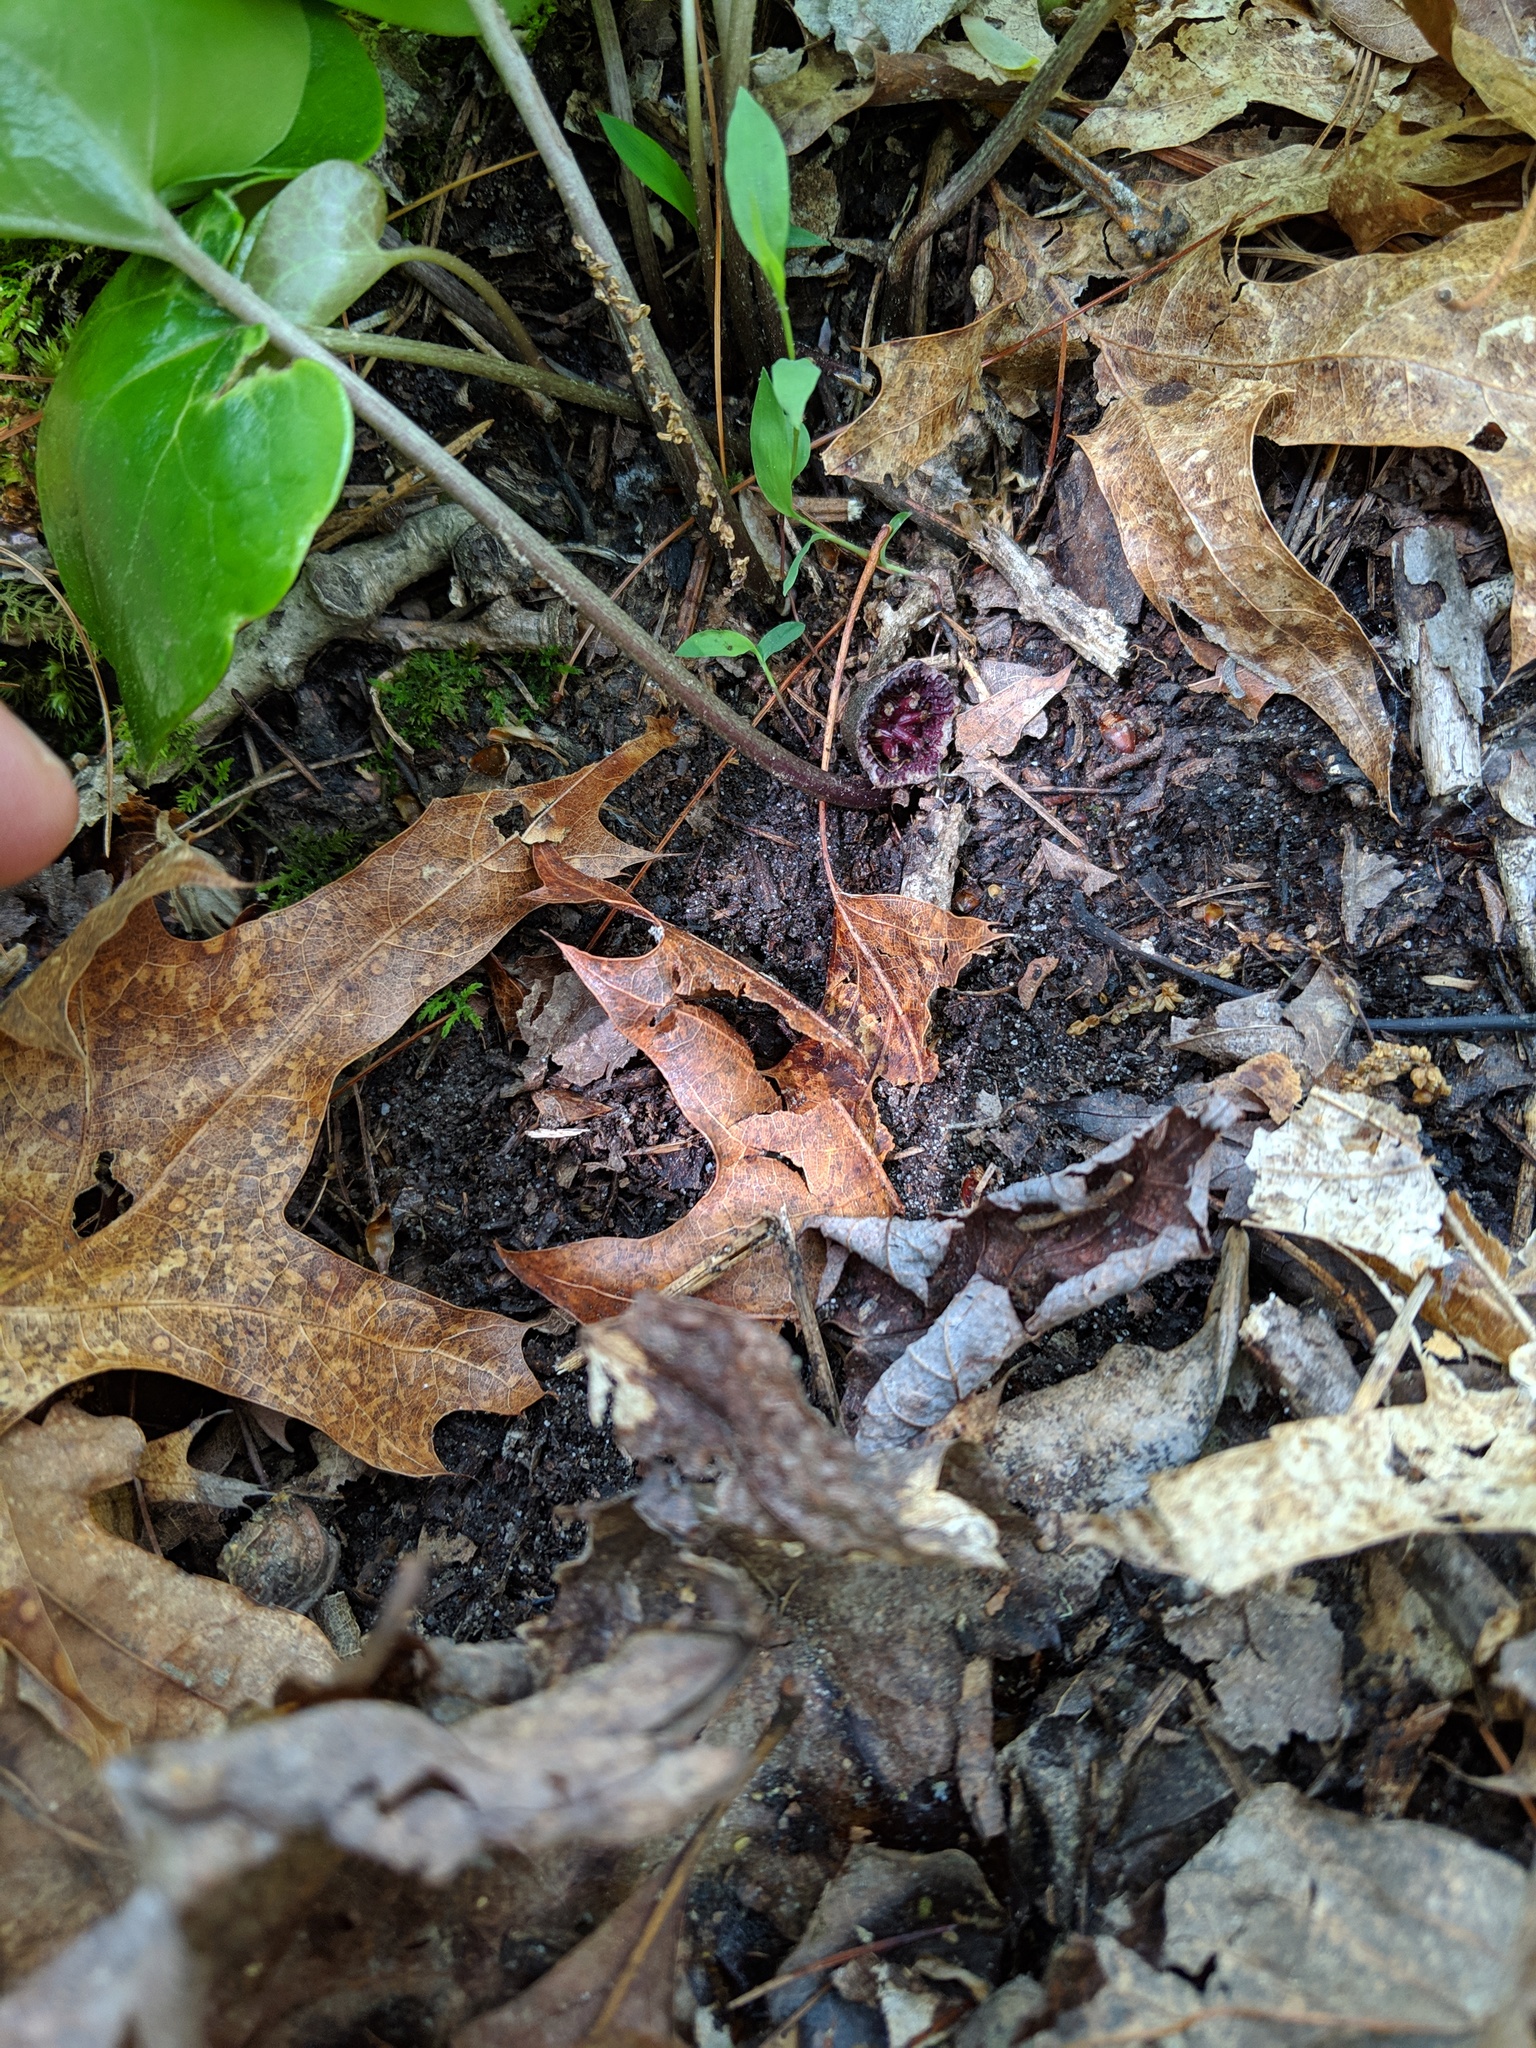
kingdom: Plantae
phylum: Tracheophyta
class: Magnoliopsida
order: Piperales
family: Aristolochiaceae
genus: Asarum
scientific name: Asarum canadense
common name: Wild ginger
